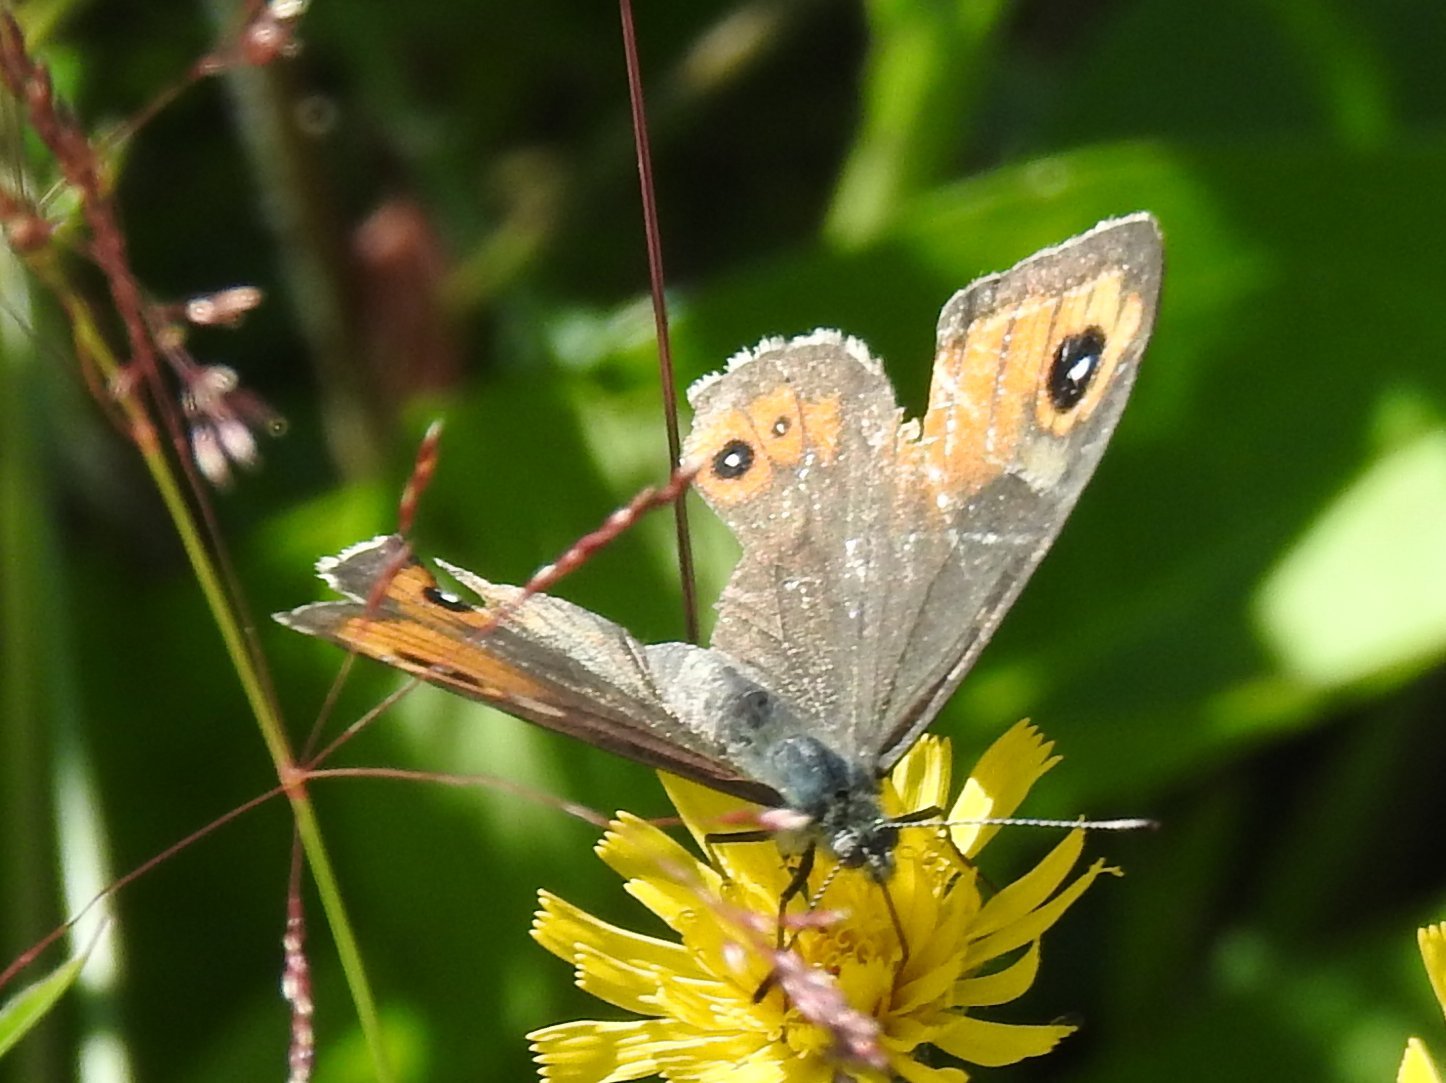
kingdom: Animalia
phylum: Arthropoda
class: Insecta
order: Lepidoptera
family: Nymphalidae
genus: Pararge
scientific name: Pararge Lasiommata maera
